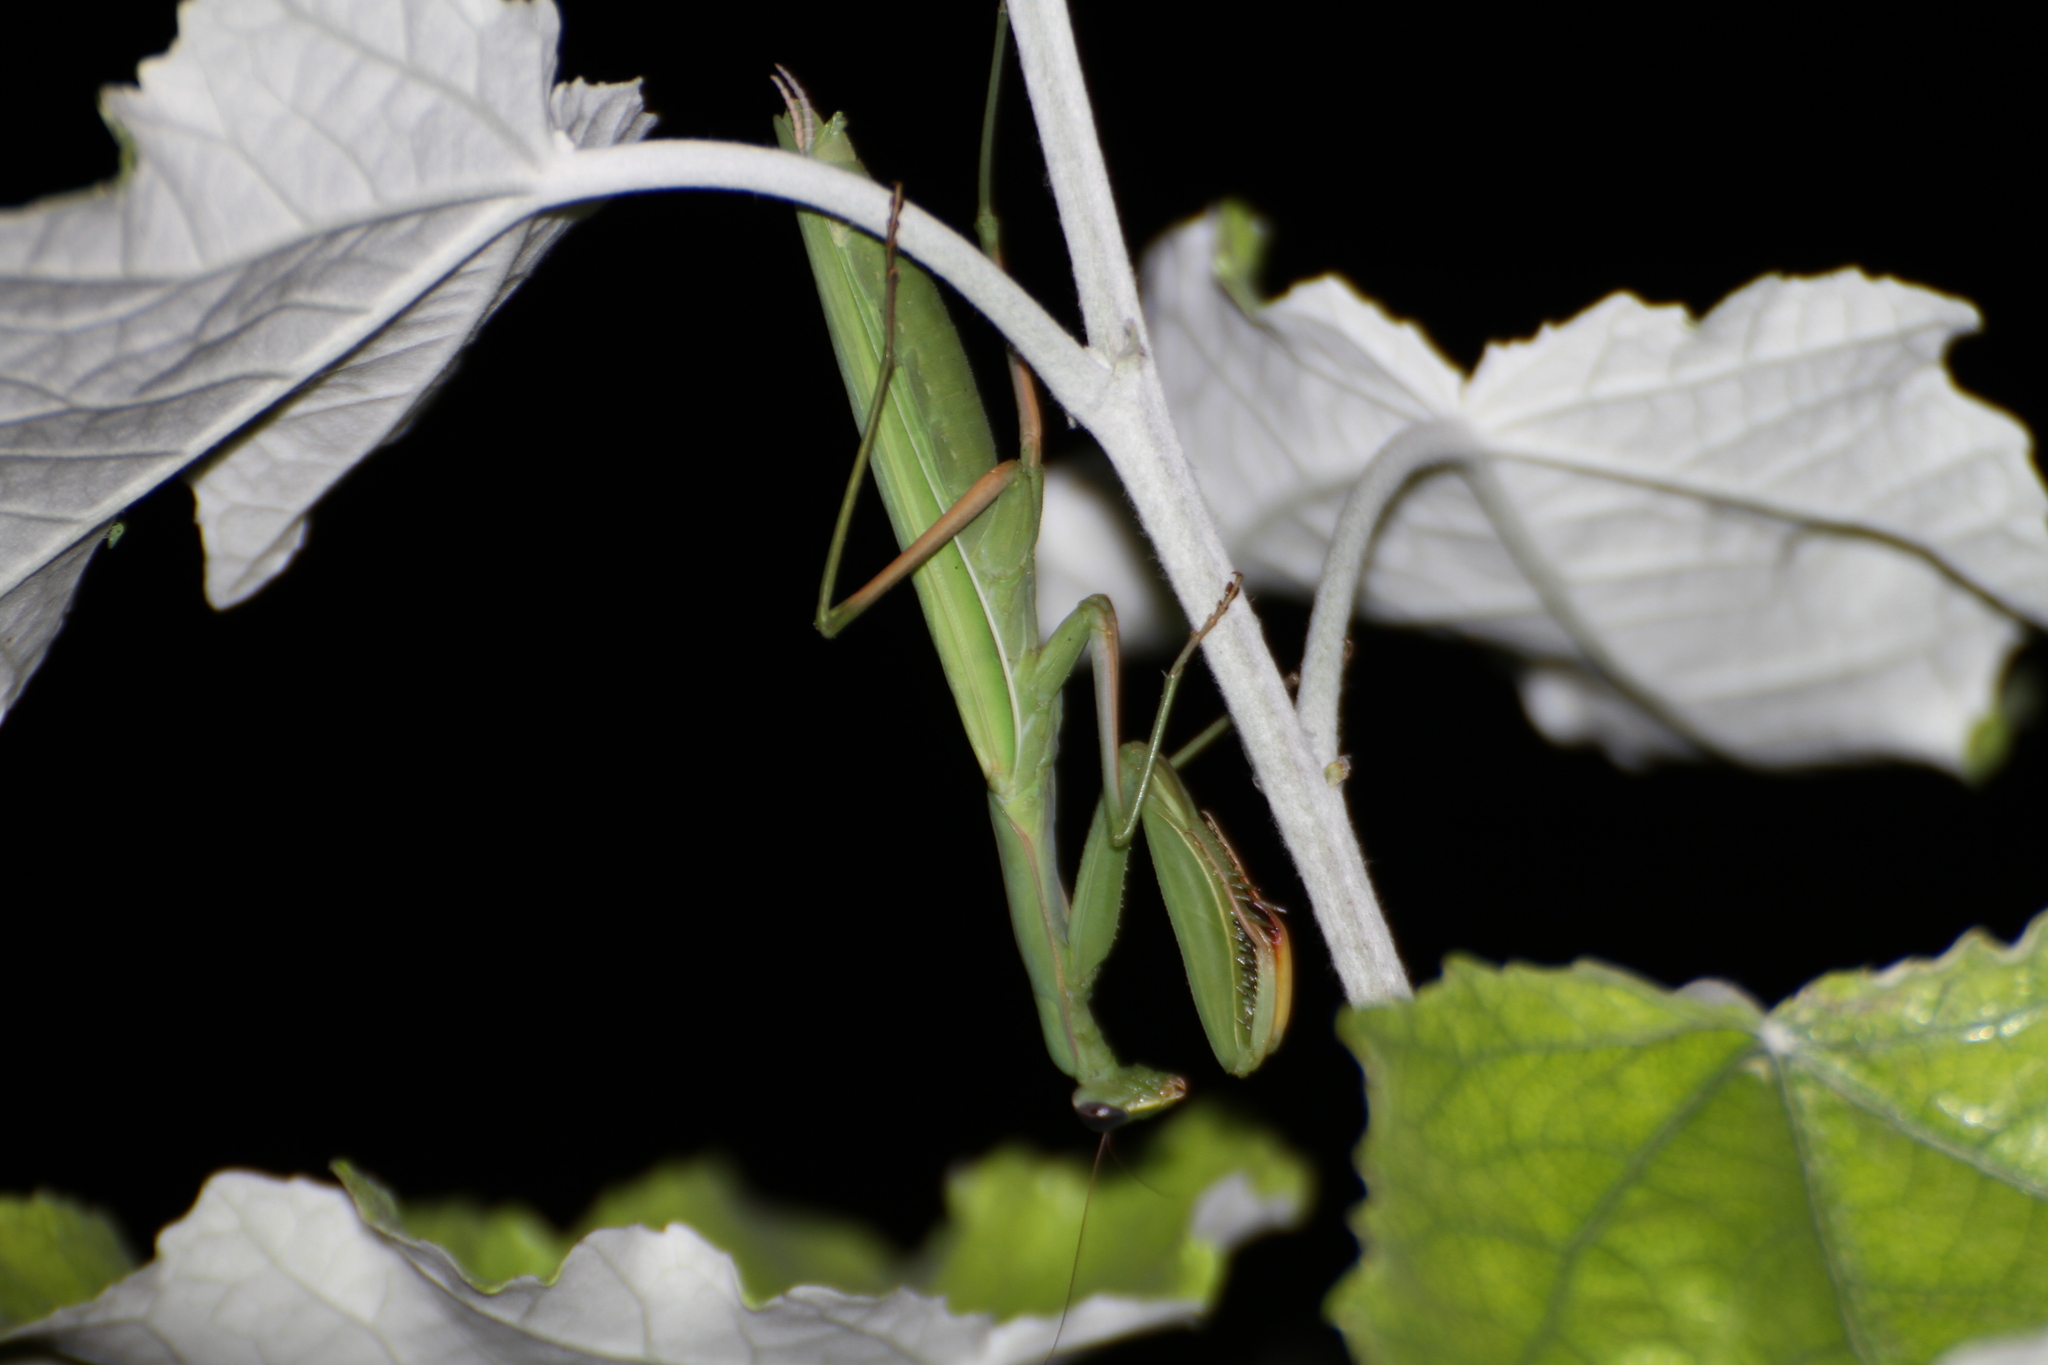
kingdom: Animalia
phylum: Arthropoda
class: Insecta
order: Mantodea
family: Mantidae
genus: Mantis
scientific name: Mantis religiosa
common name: Praying mantis
